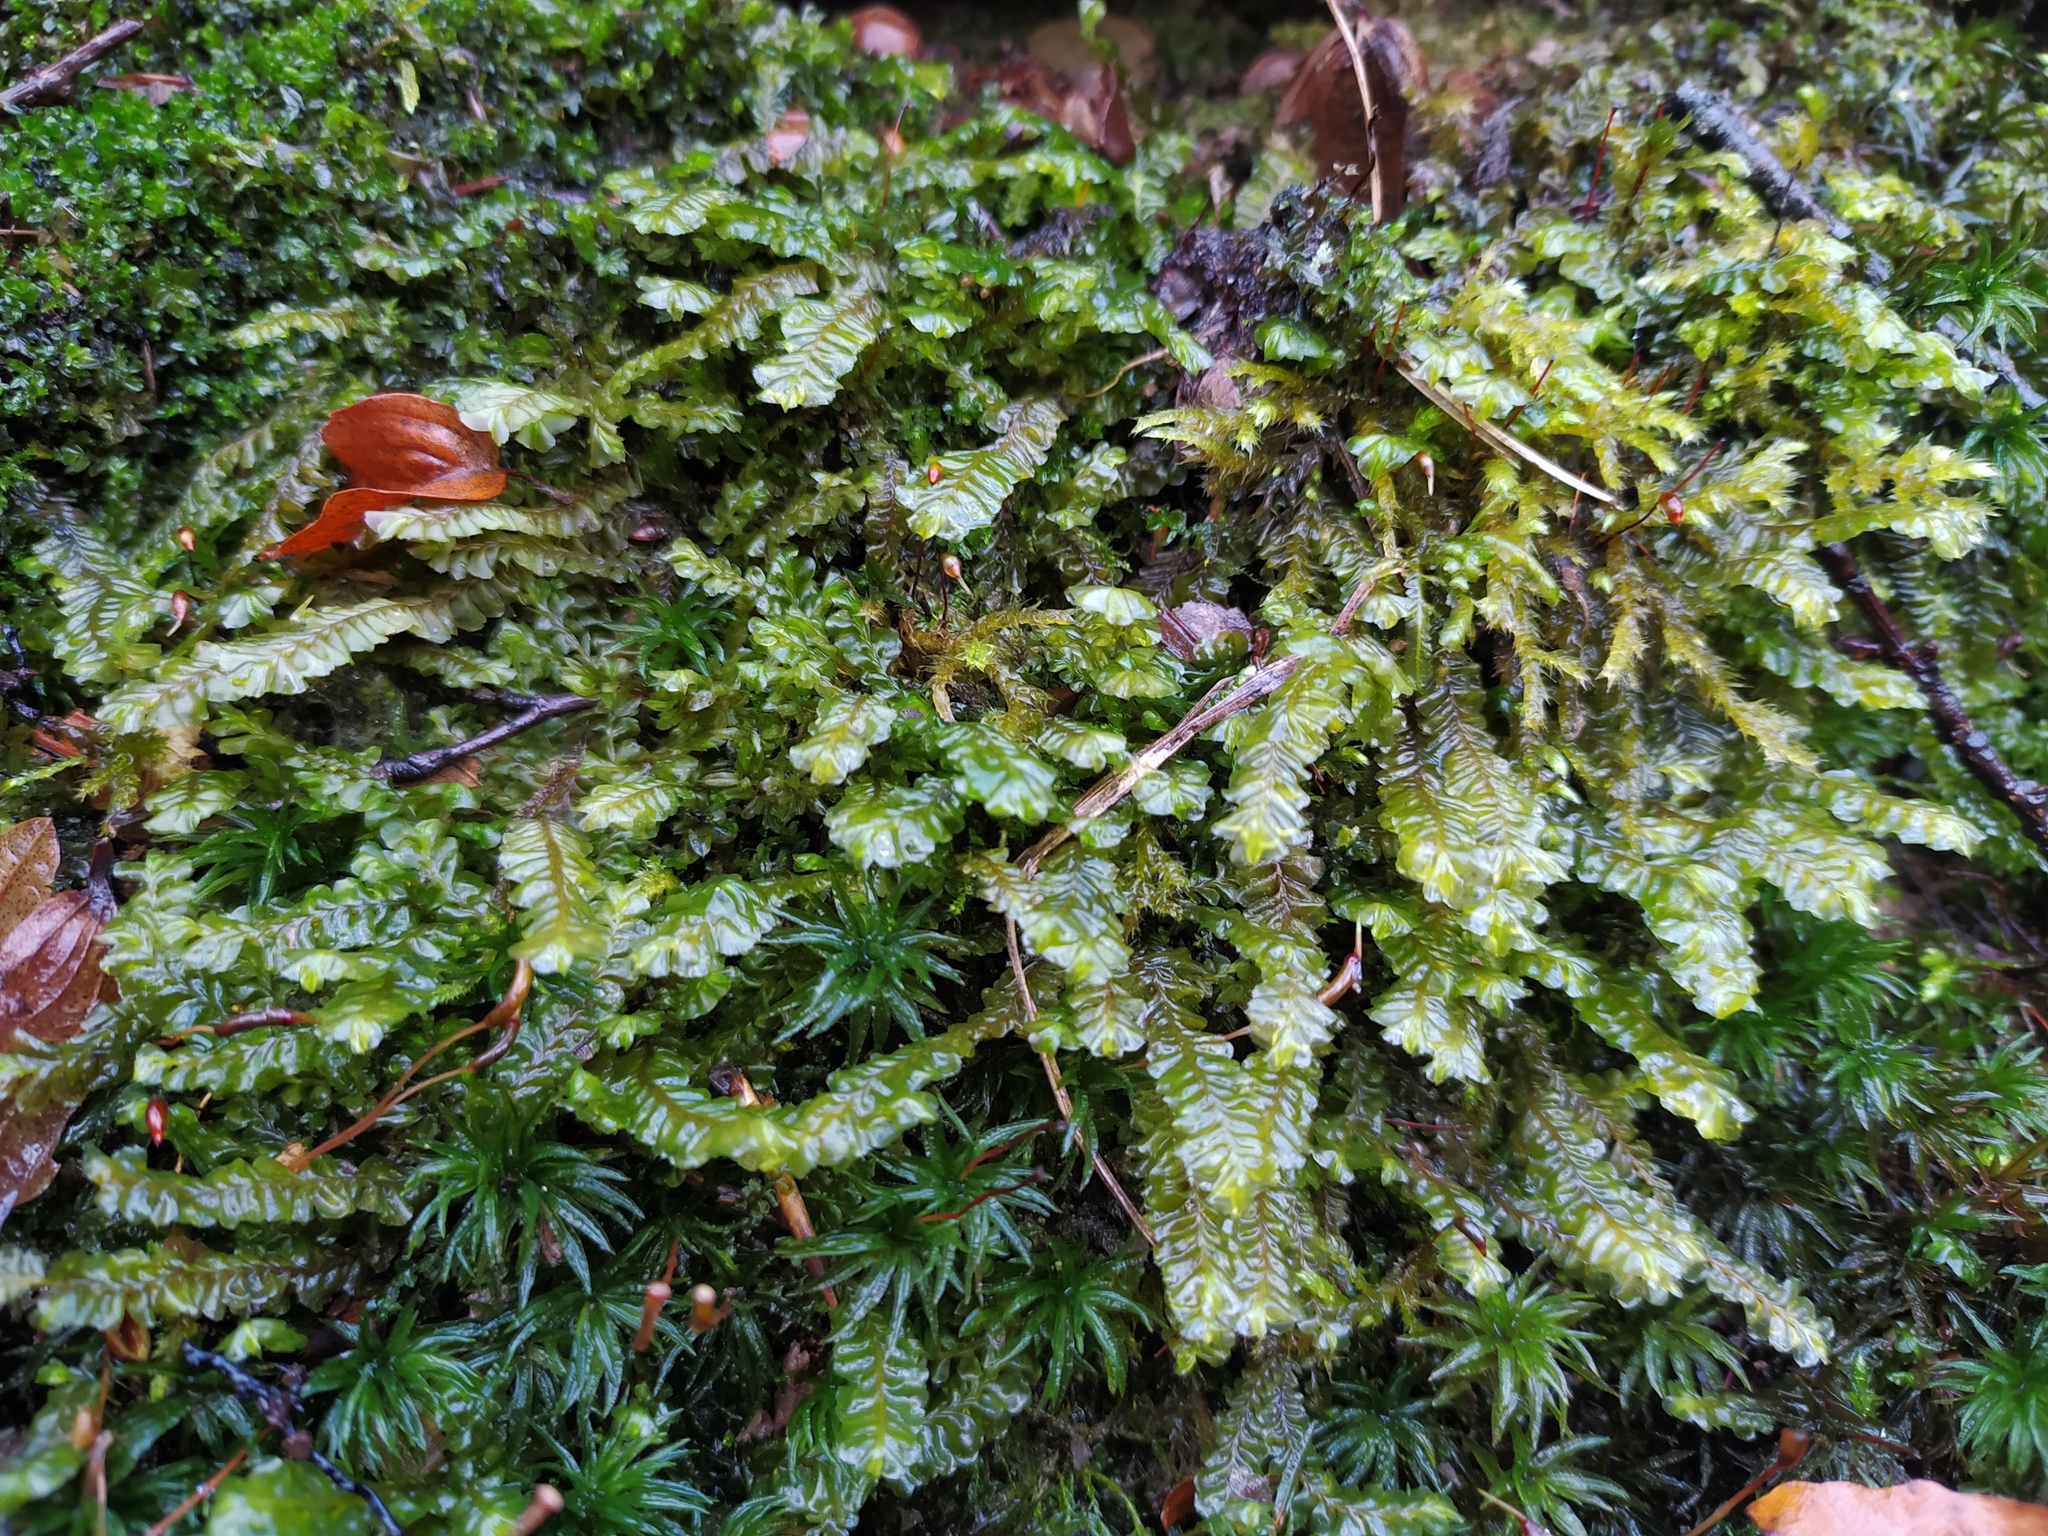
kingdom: Plantae
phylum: Marchantiophyta
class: Jungermanniopsida
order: Jungermanniales
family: Plagiochilaceae
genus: Plagiochila
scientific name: Plagiochila asplenioides
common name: Greater featherwort
